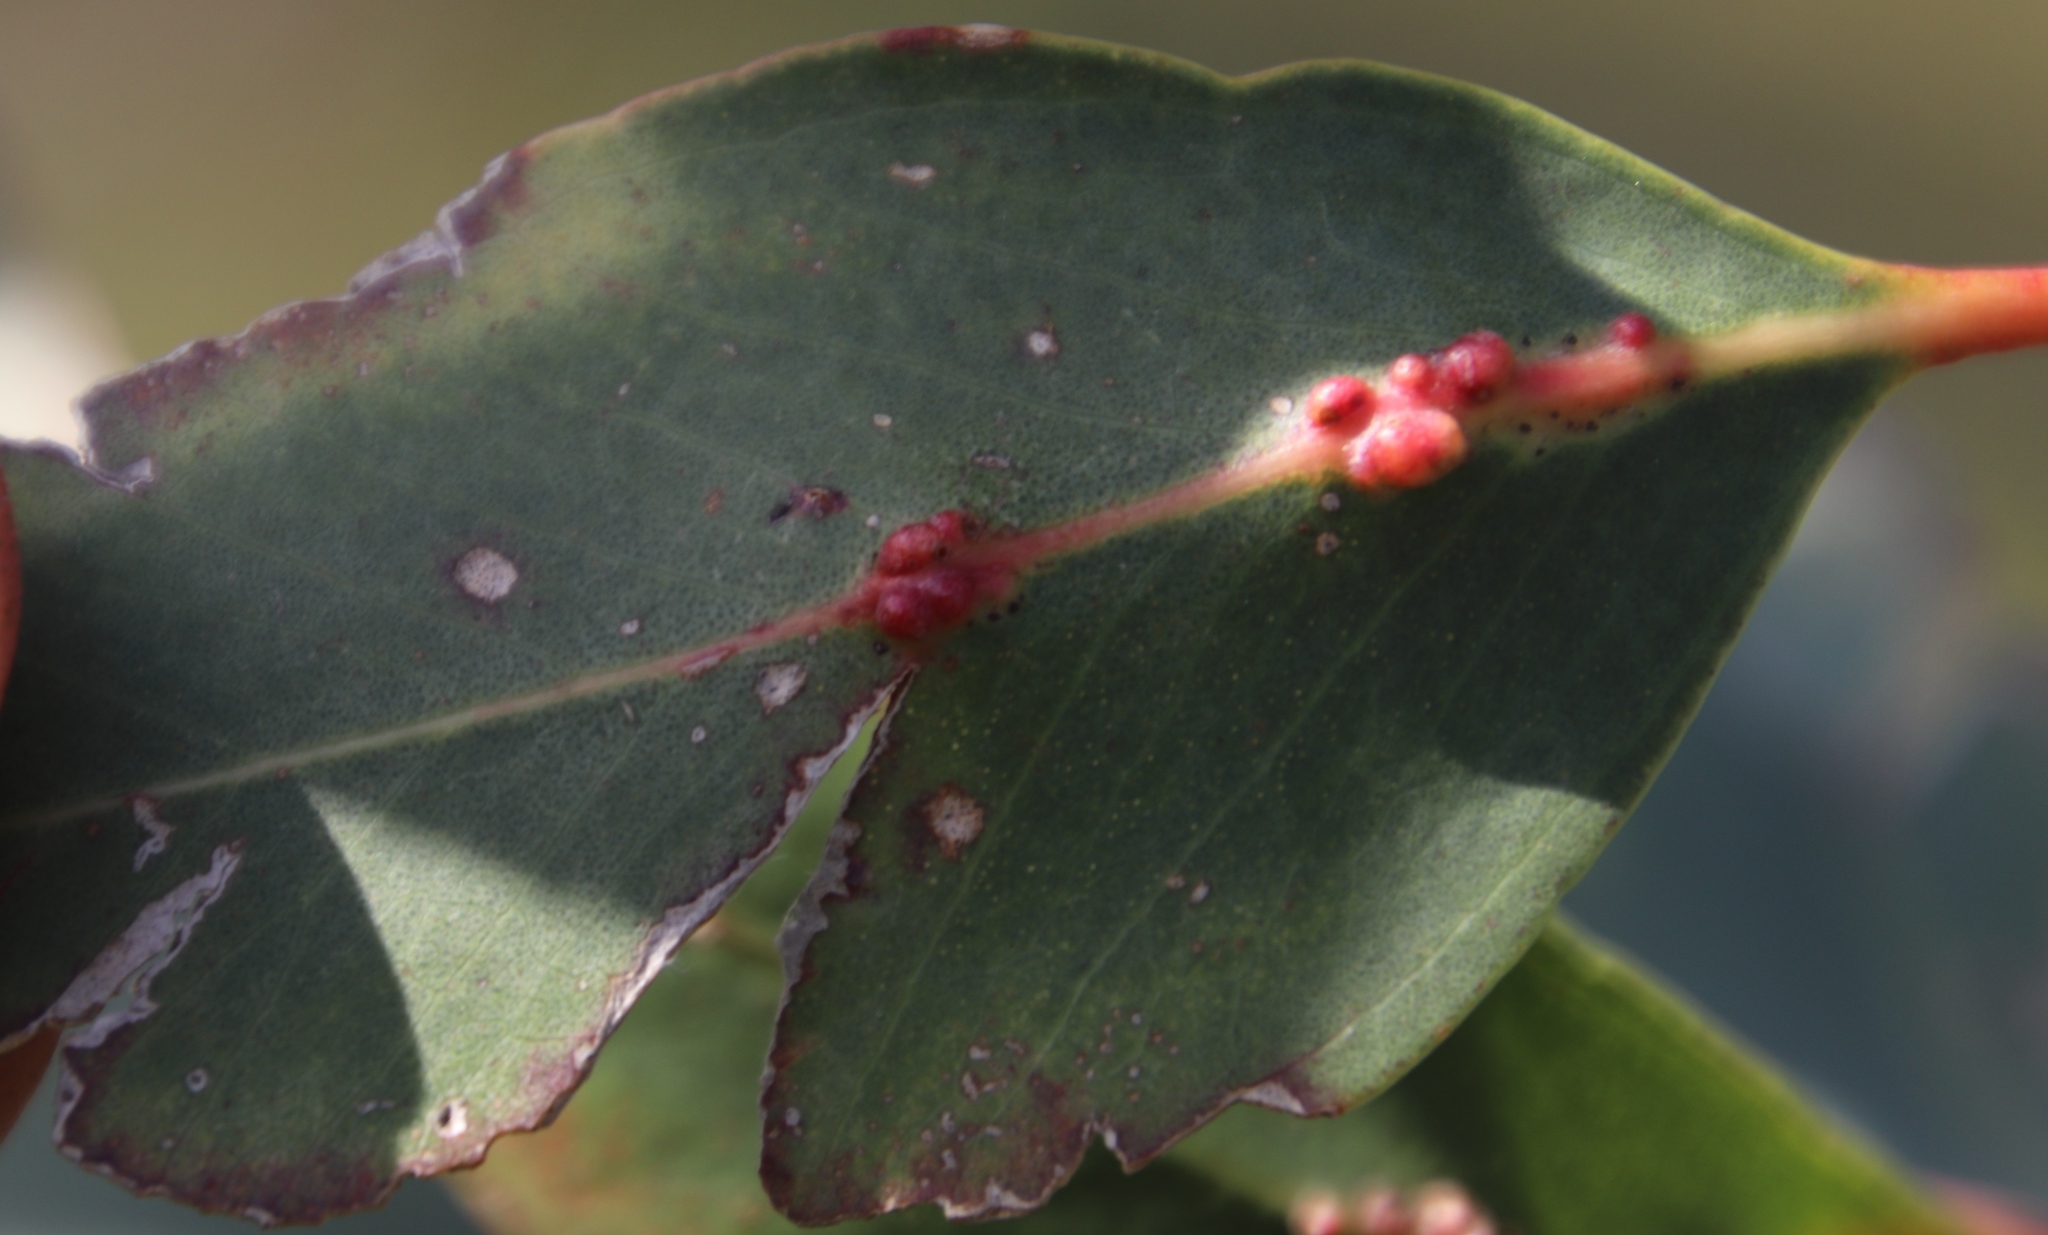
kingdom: Animalia
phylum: Arthropoda
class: Insecta
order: Hymenoptera
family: Eulophidae
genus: Leptocybe
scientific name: Leptocybe invasa
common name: Gall wasp
